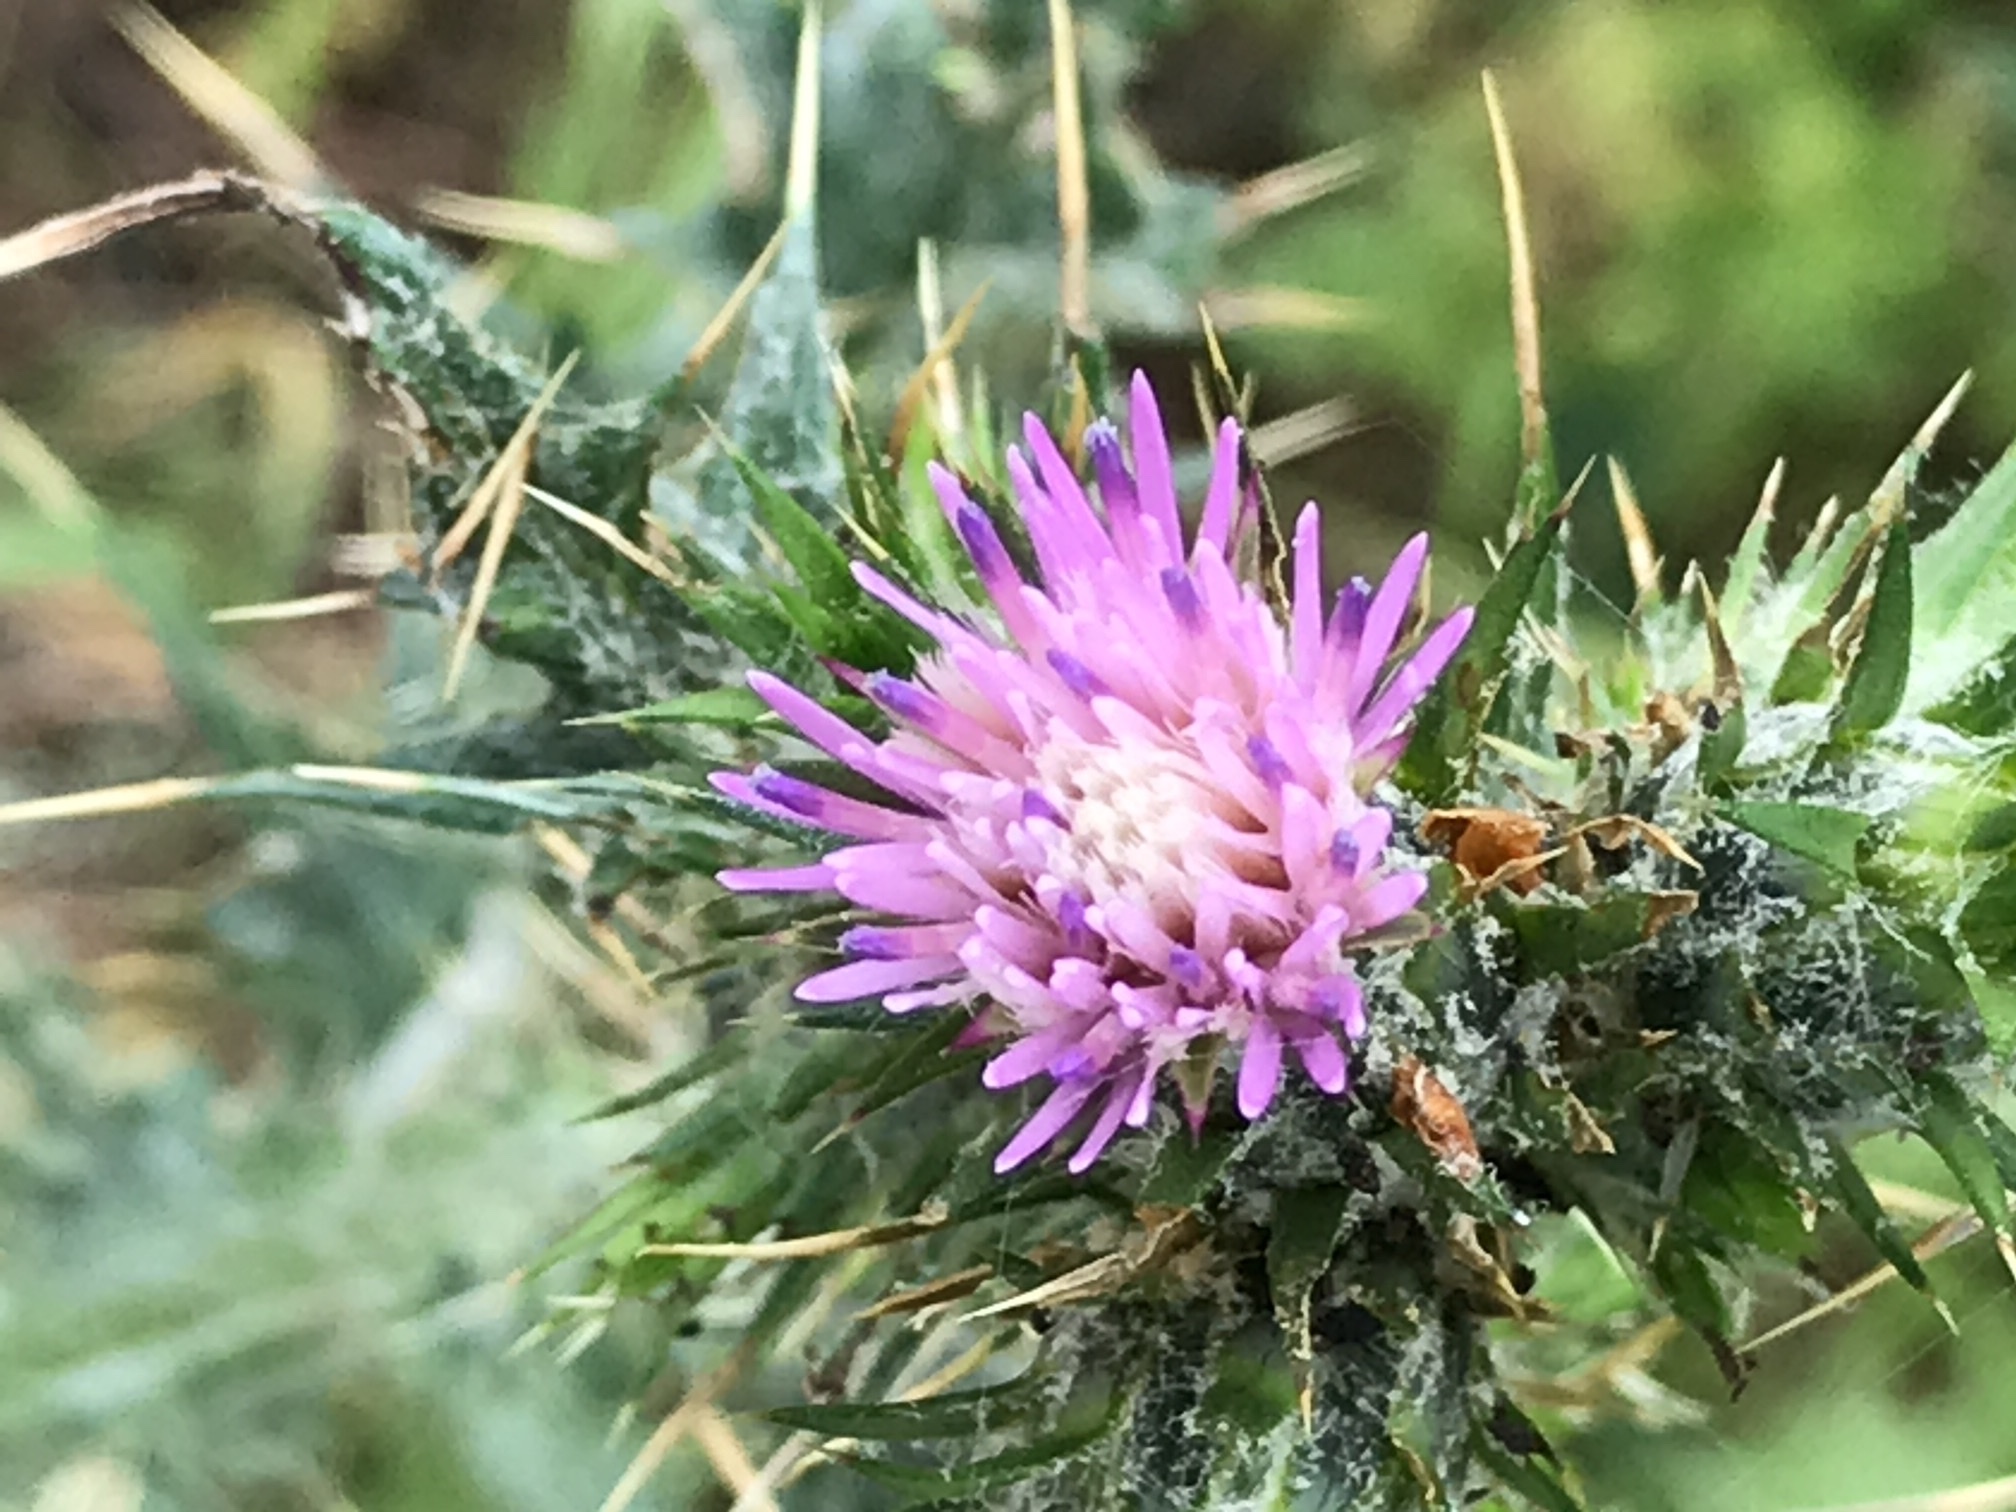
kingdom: Plantae
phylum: Tracheophyta
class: Magnoliopsida
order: Asterales
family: Asteraceae
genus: Carduus
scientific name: Carduus pycnocephalus
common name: Plymouth thistle
